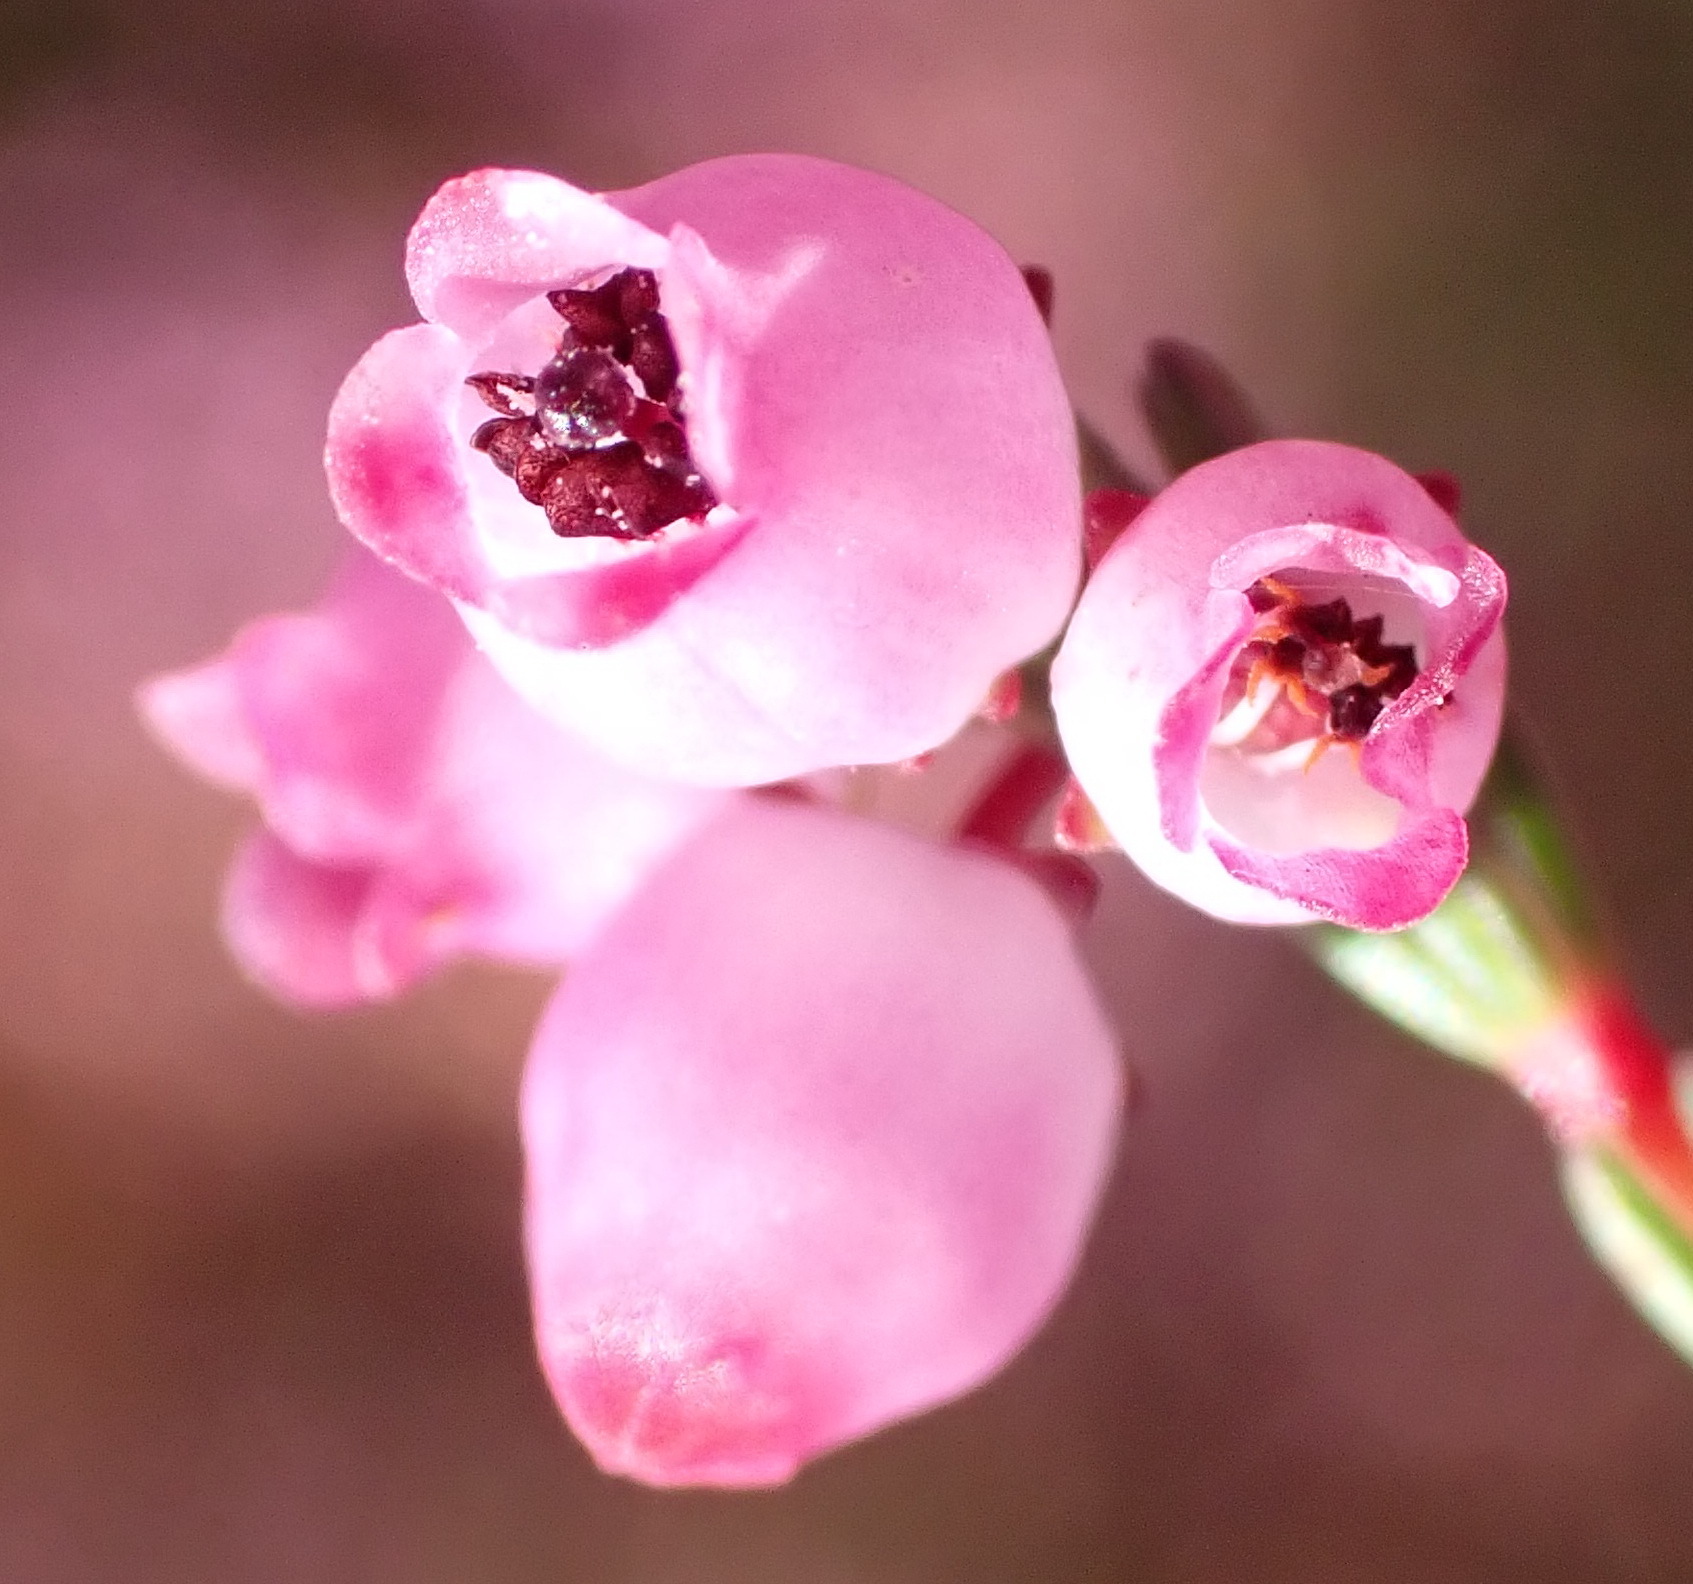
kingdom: Plantae
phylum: Tracheophyta
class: Magnoliopsida
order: Ericales
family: Ericaceae
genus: Erica
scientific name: Erica gracilis
